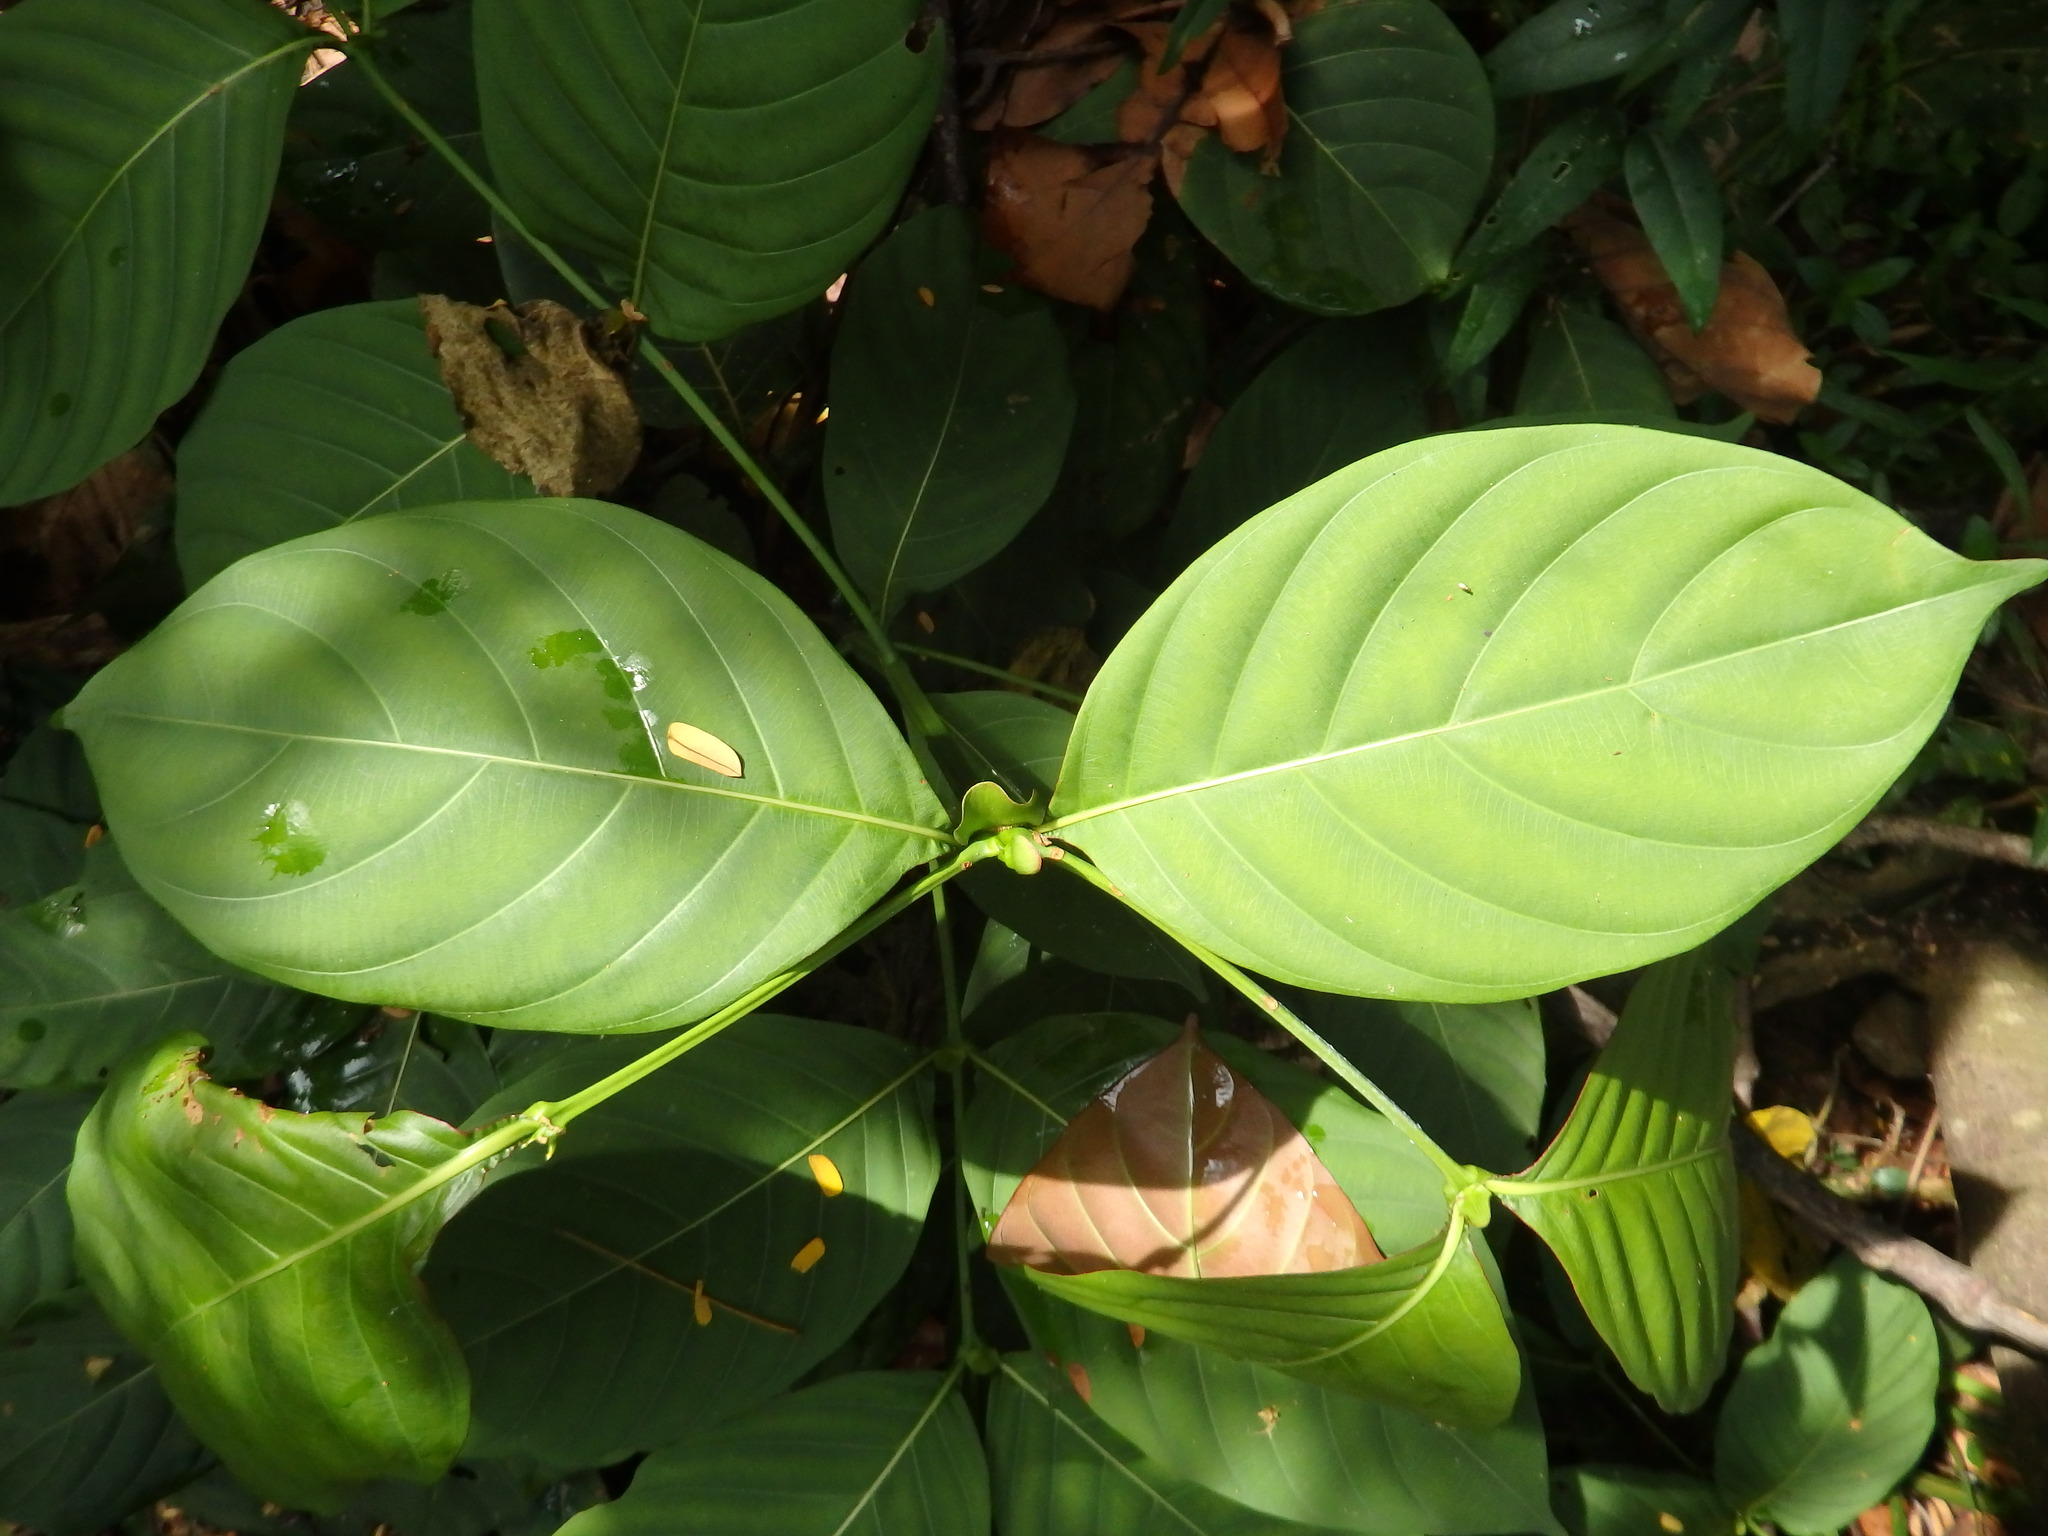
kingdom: Plantae
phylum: Tracheophyta
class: Magnoliopsida
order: Gentianales
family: Rubiaceae
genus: Uncaria
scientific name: Uncaria longiflora
